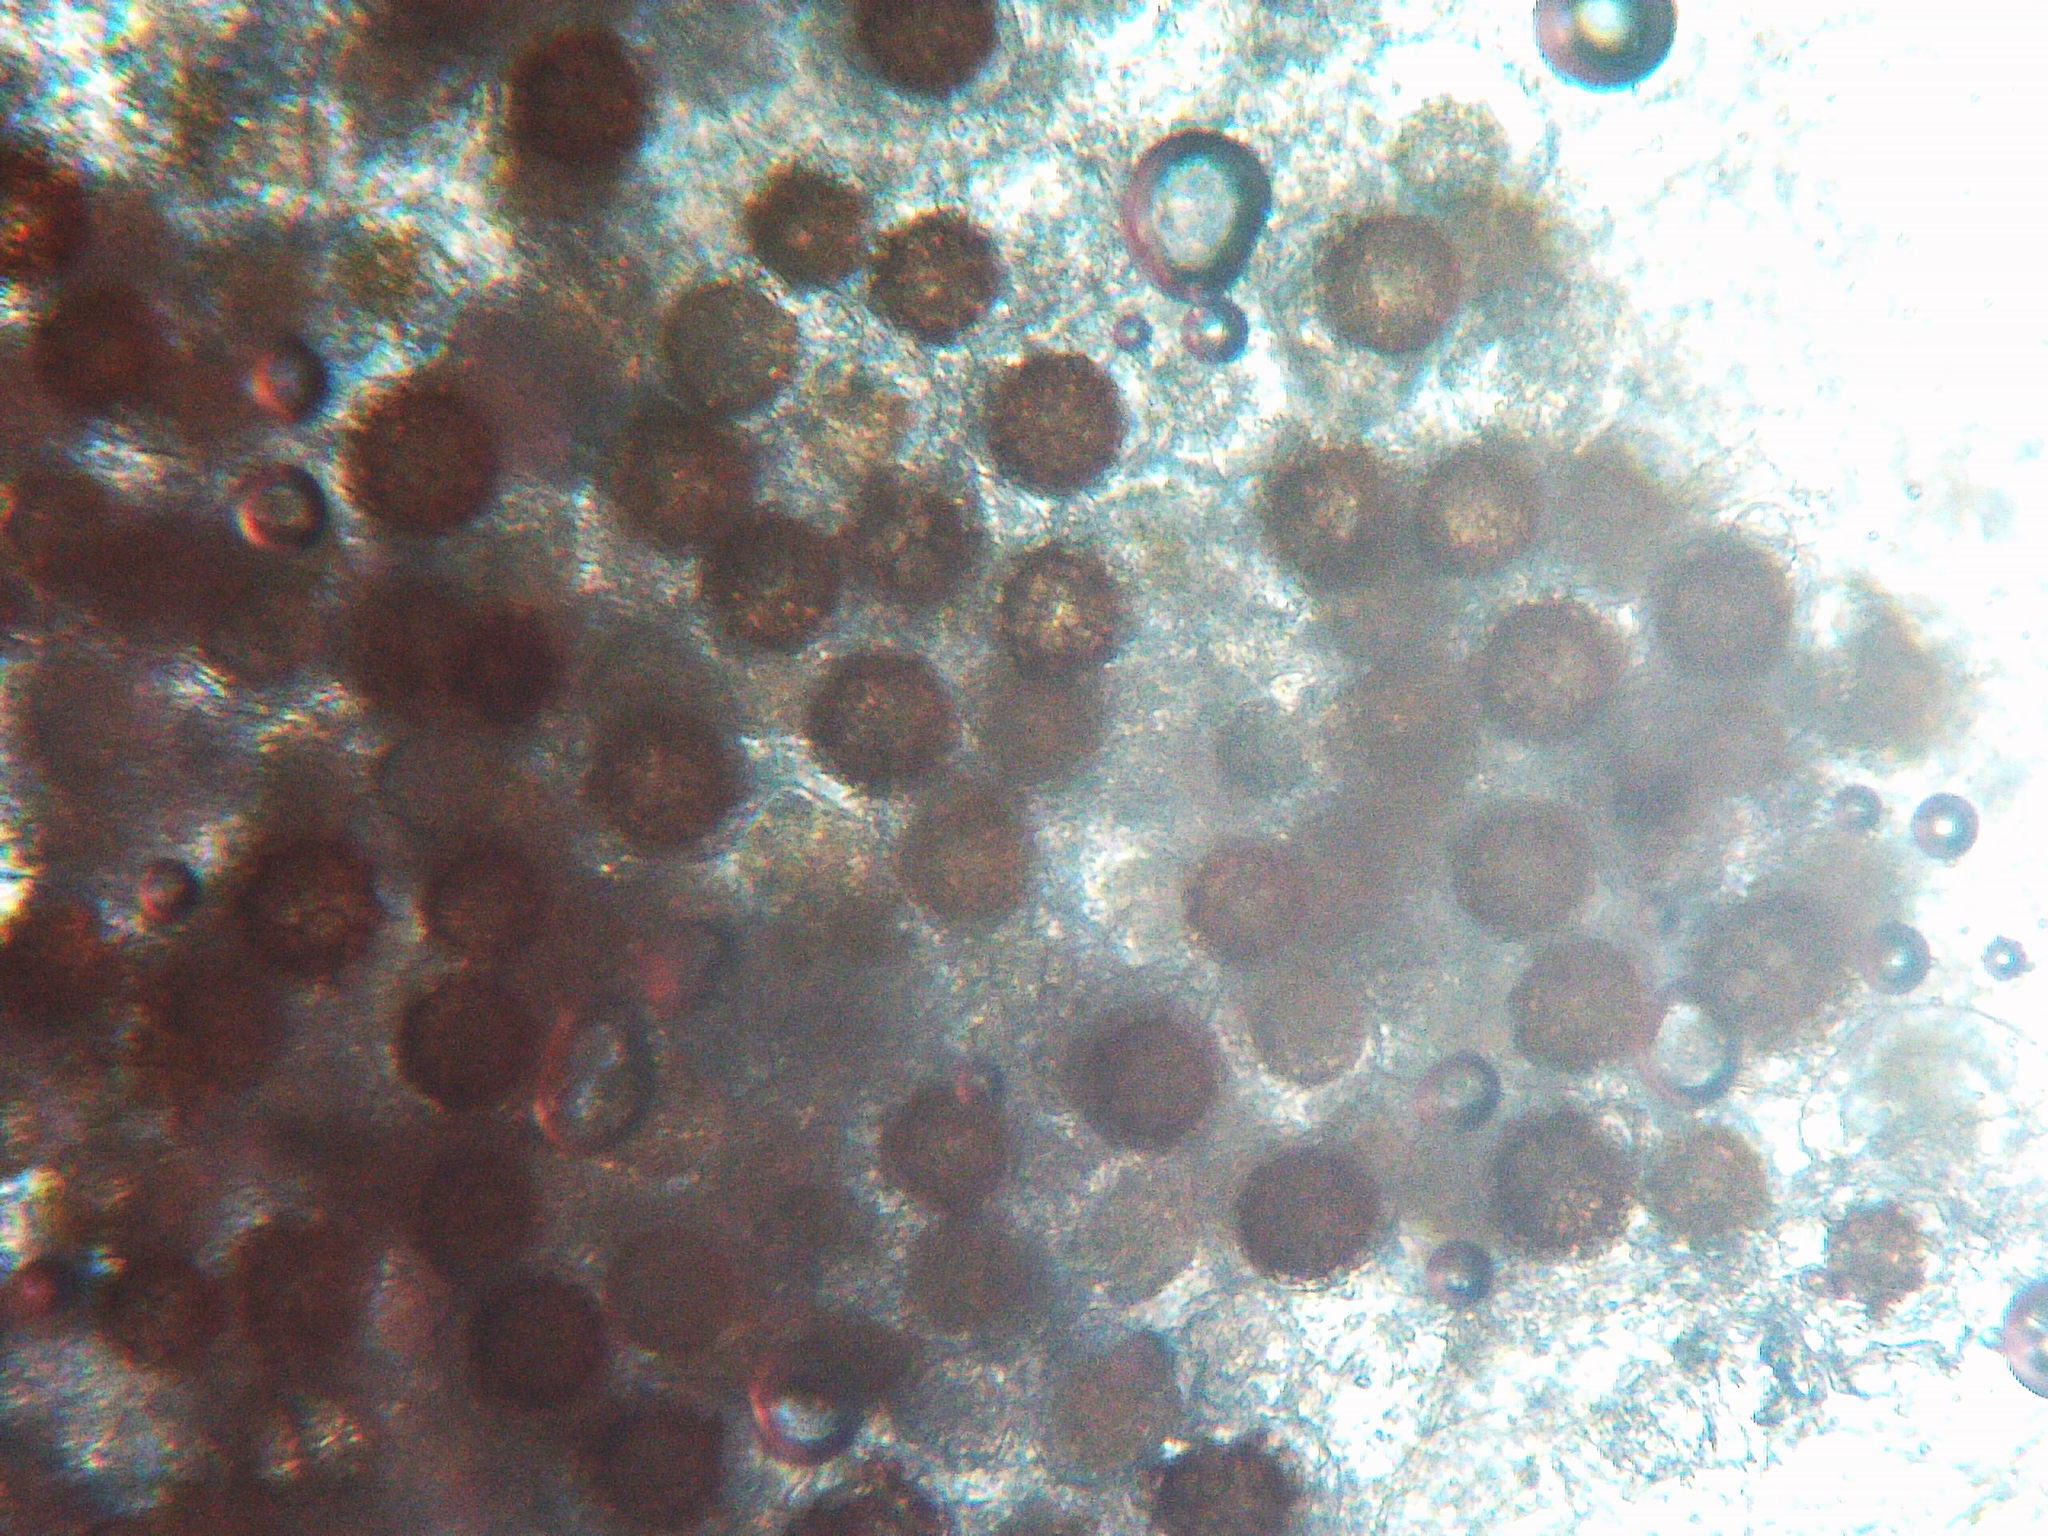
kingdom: Chromista
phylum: Oomycota
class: Peronosporea
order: Peronosporales
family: Peronosporaceae
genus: Peronospora
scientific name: Peronospora alsinearum
